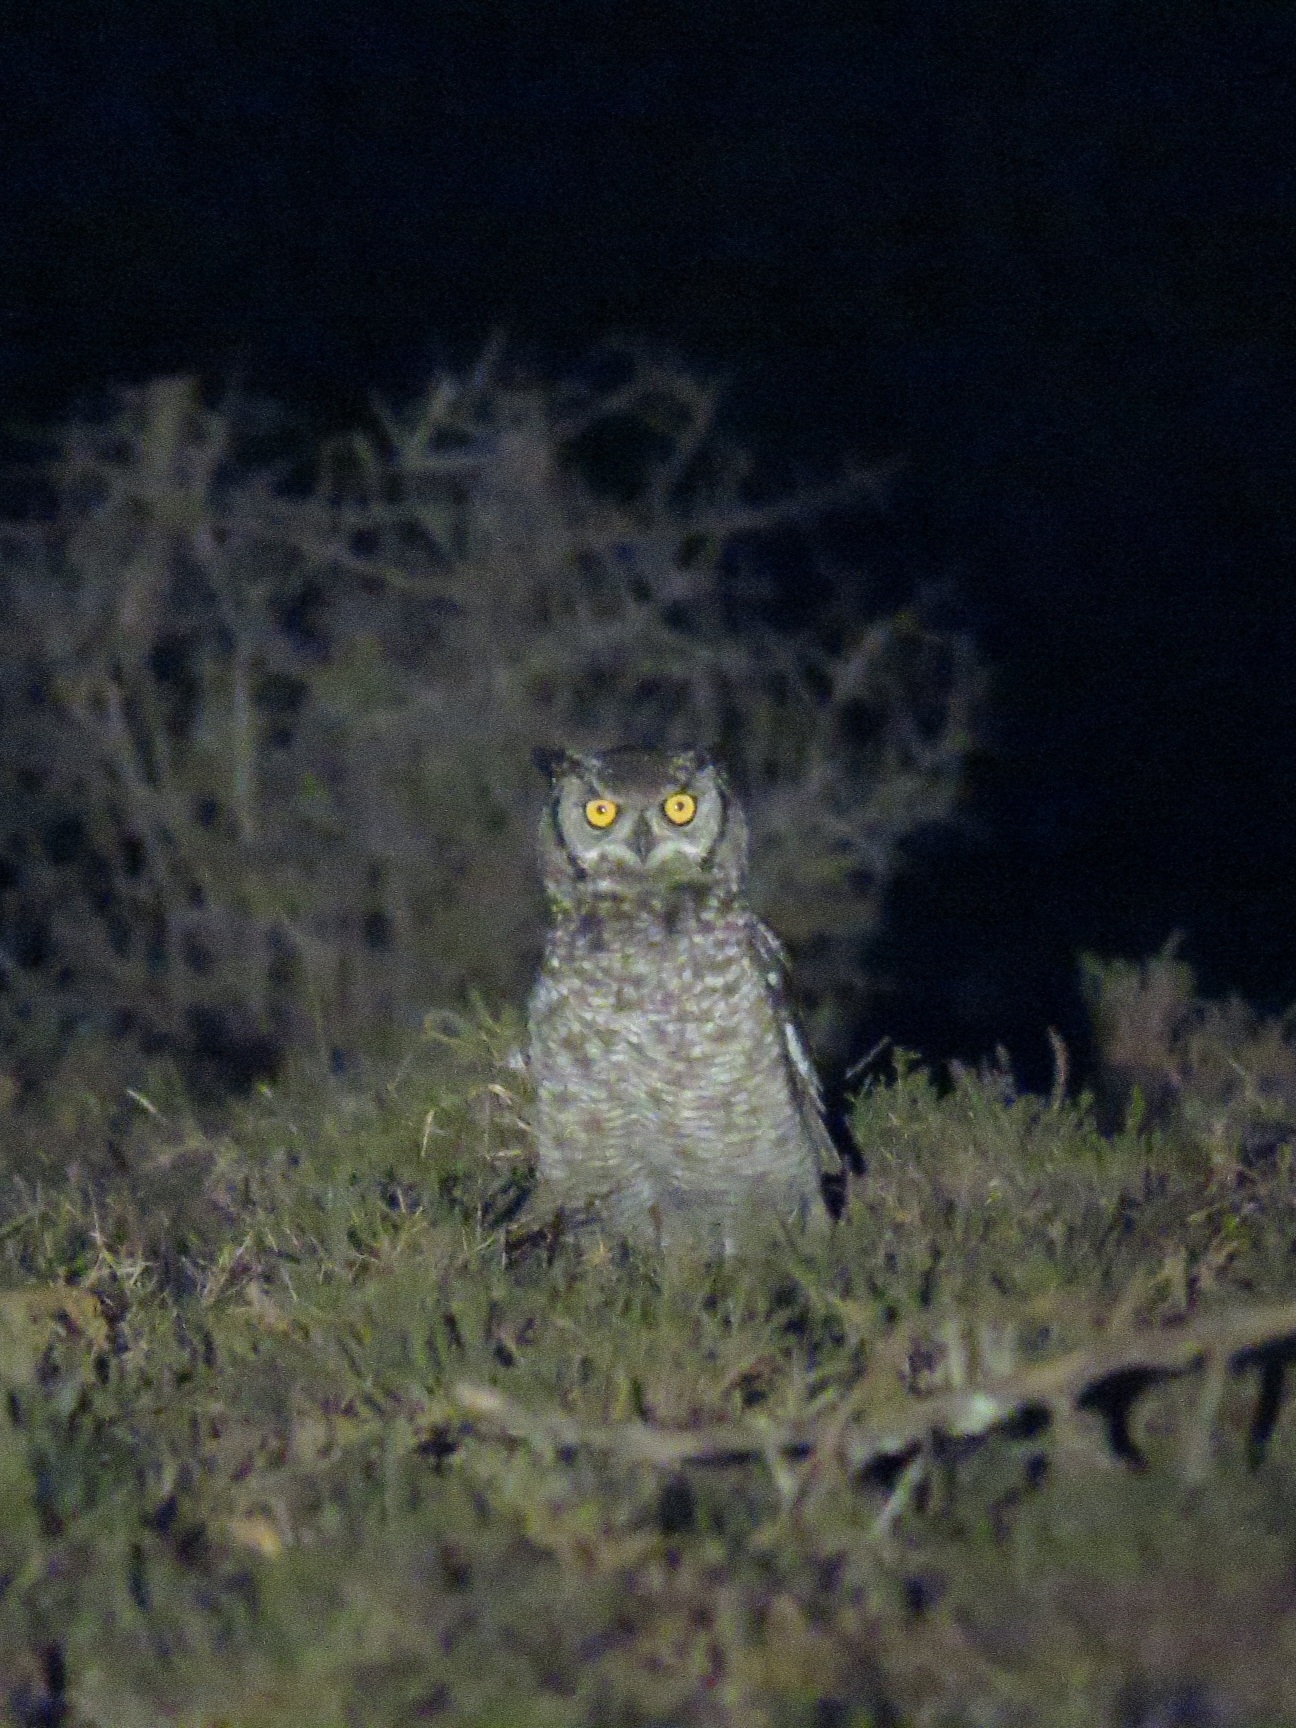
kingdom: Animalia
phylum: Chordata
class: Aves
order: Strigiformes
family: Strigidae
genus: Bubo
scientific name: Bubo africanus
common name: Spotted eagle-owl
